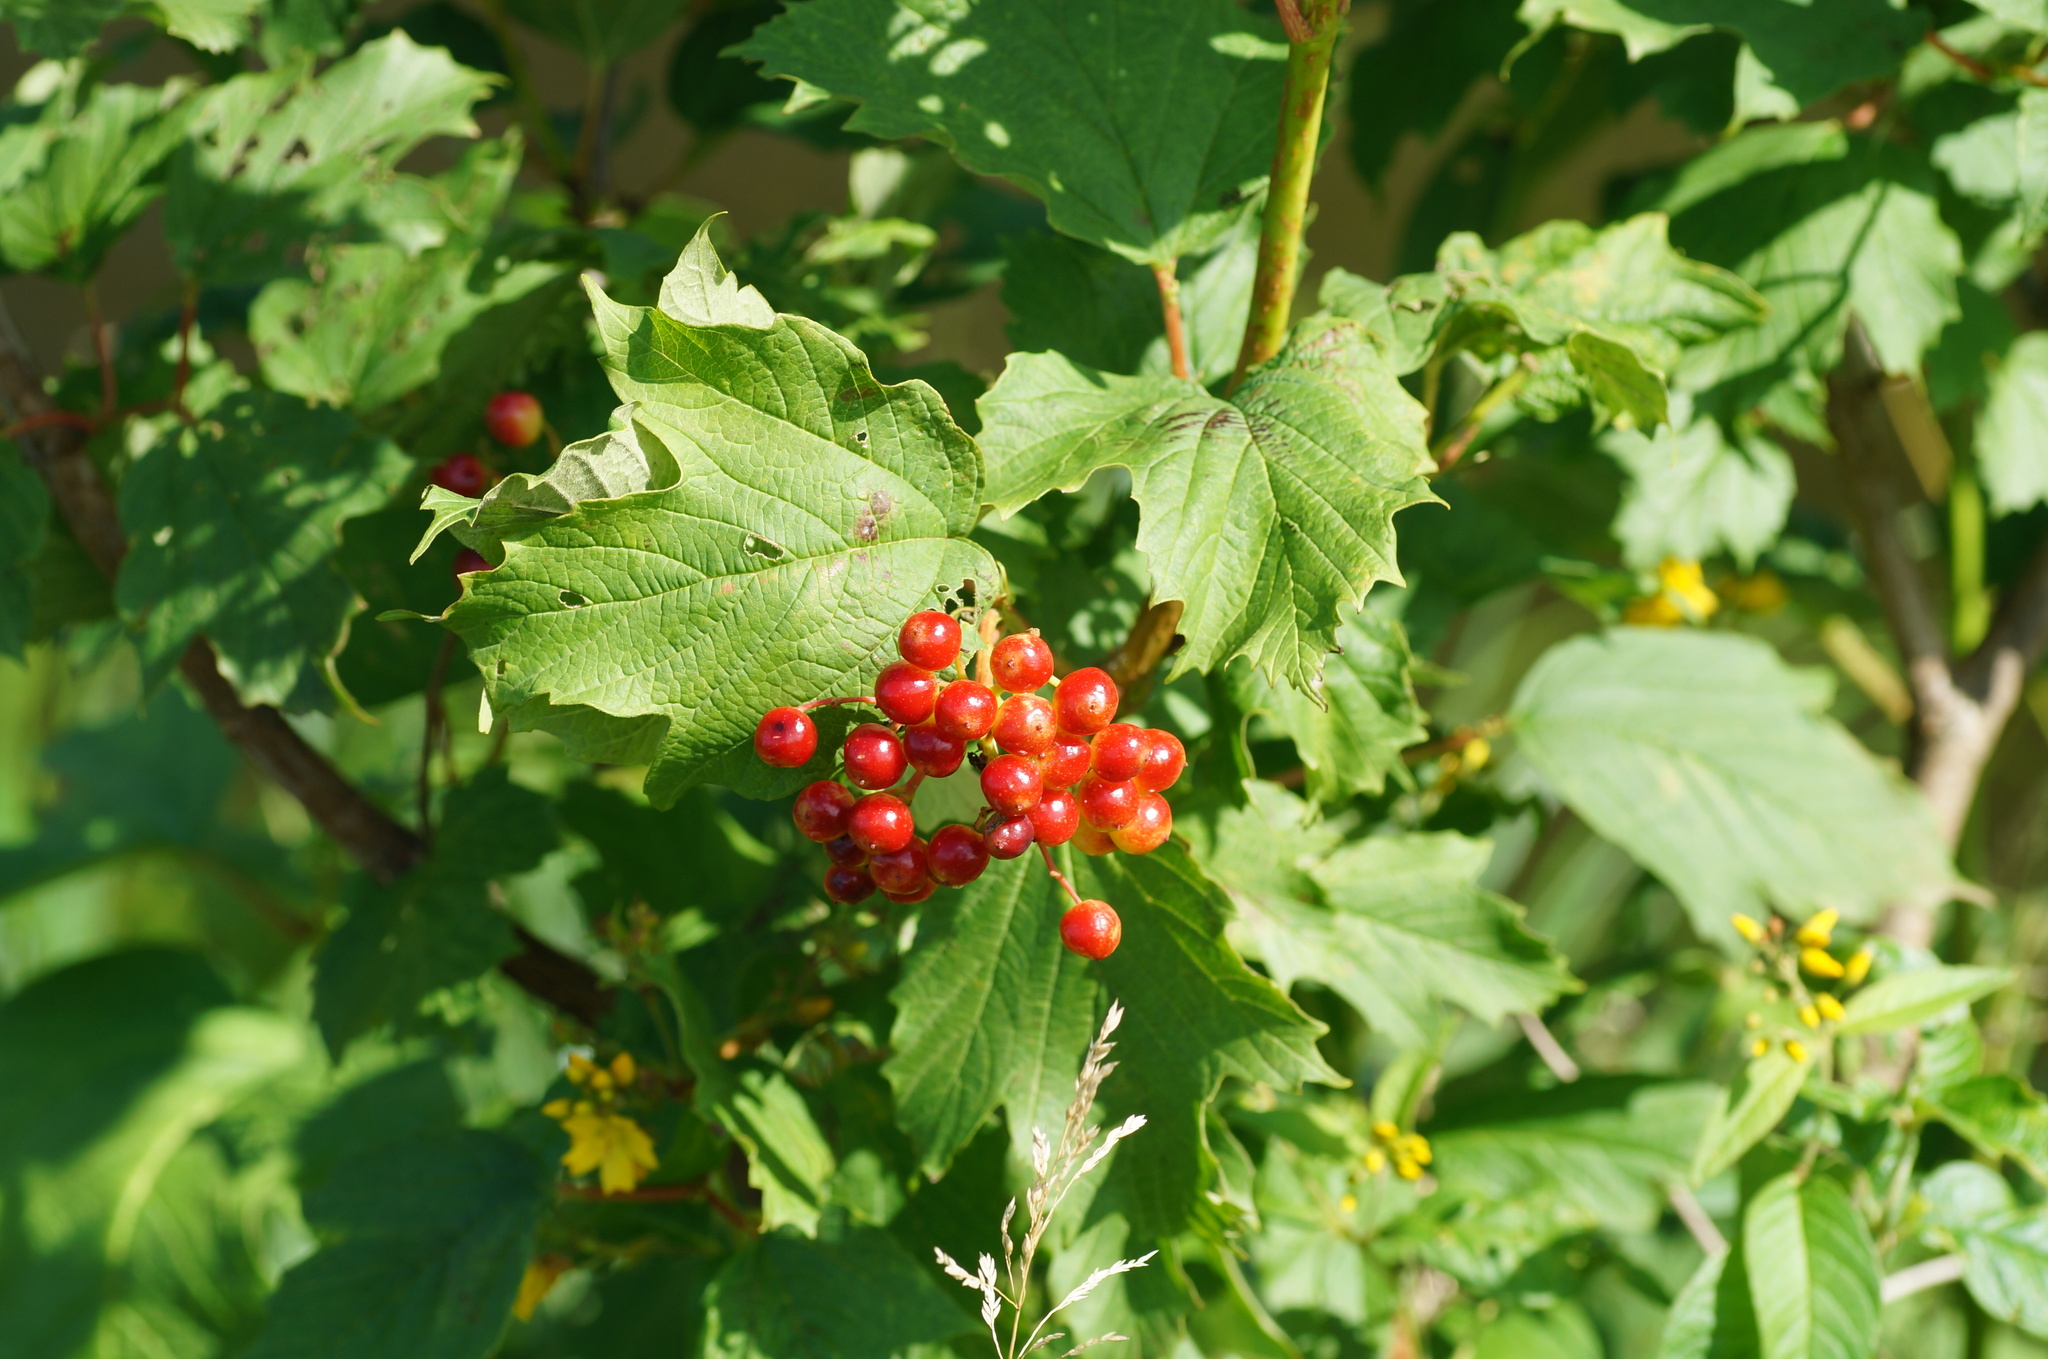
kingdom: Plantae
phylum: Tracheophyta
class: Magnoliopsida
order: Dipsacales
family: Viburnaceae
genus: Viburnum
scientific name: Viburnum opulus
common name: Guelder-rose
